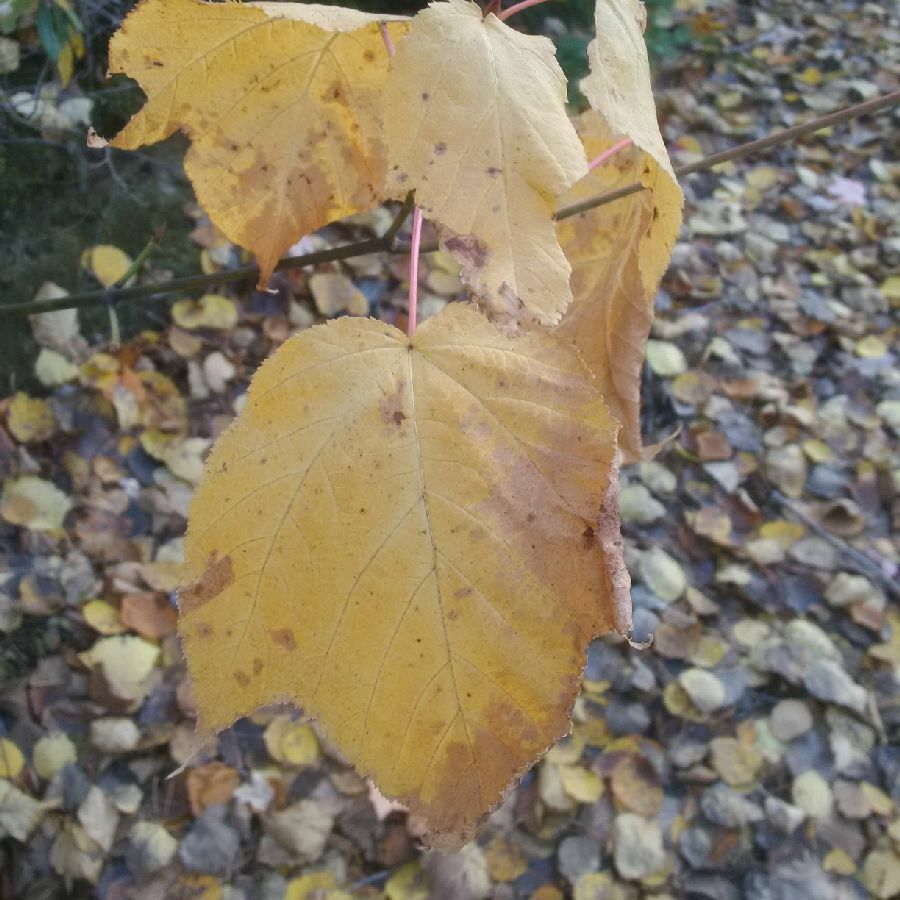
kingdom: Plantae
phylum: Tracheophyta
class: Magnoliopsida
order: Sapindales
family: Sapindaceae
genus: Acer
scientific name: Acer pensylvanicum
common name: Moosewood
